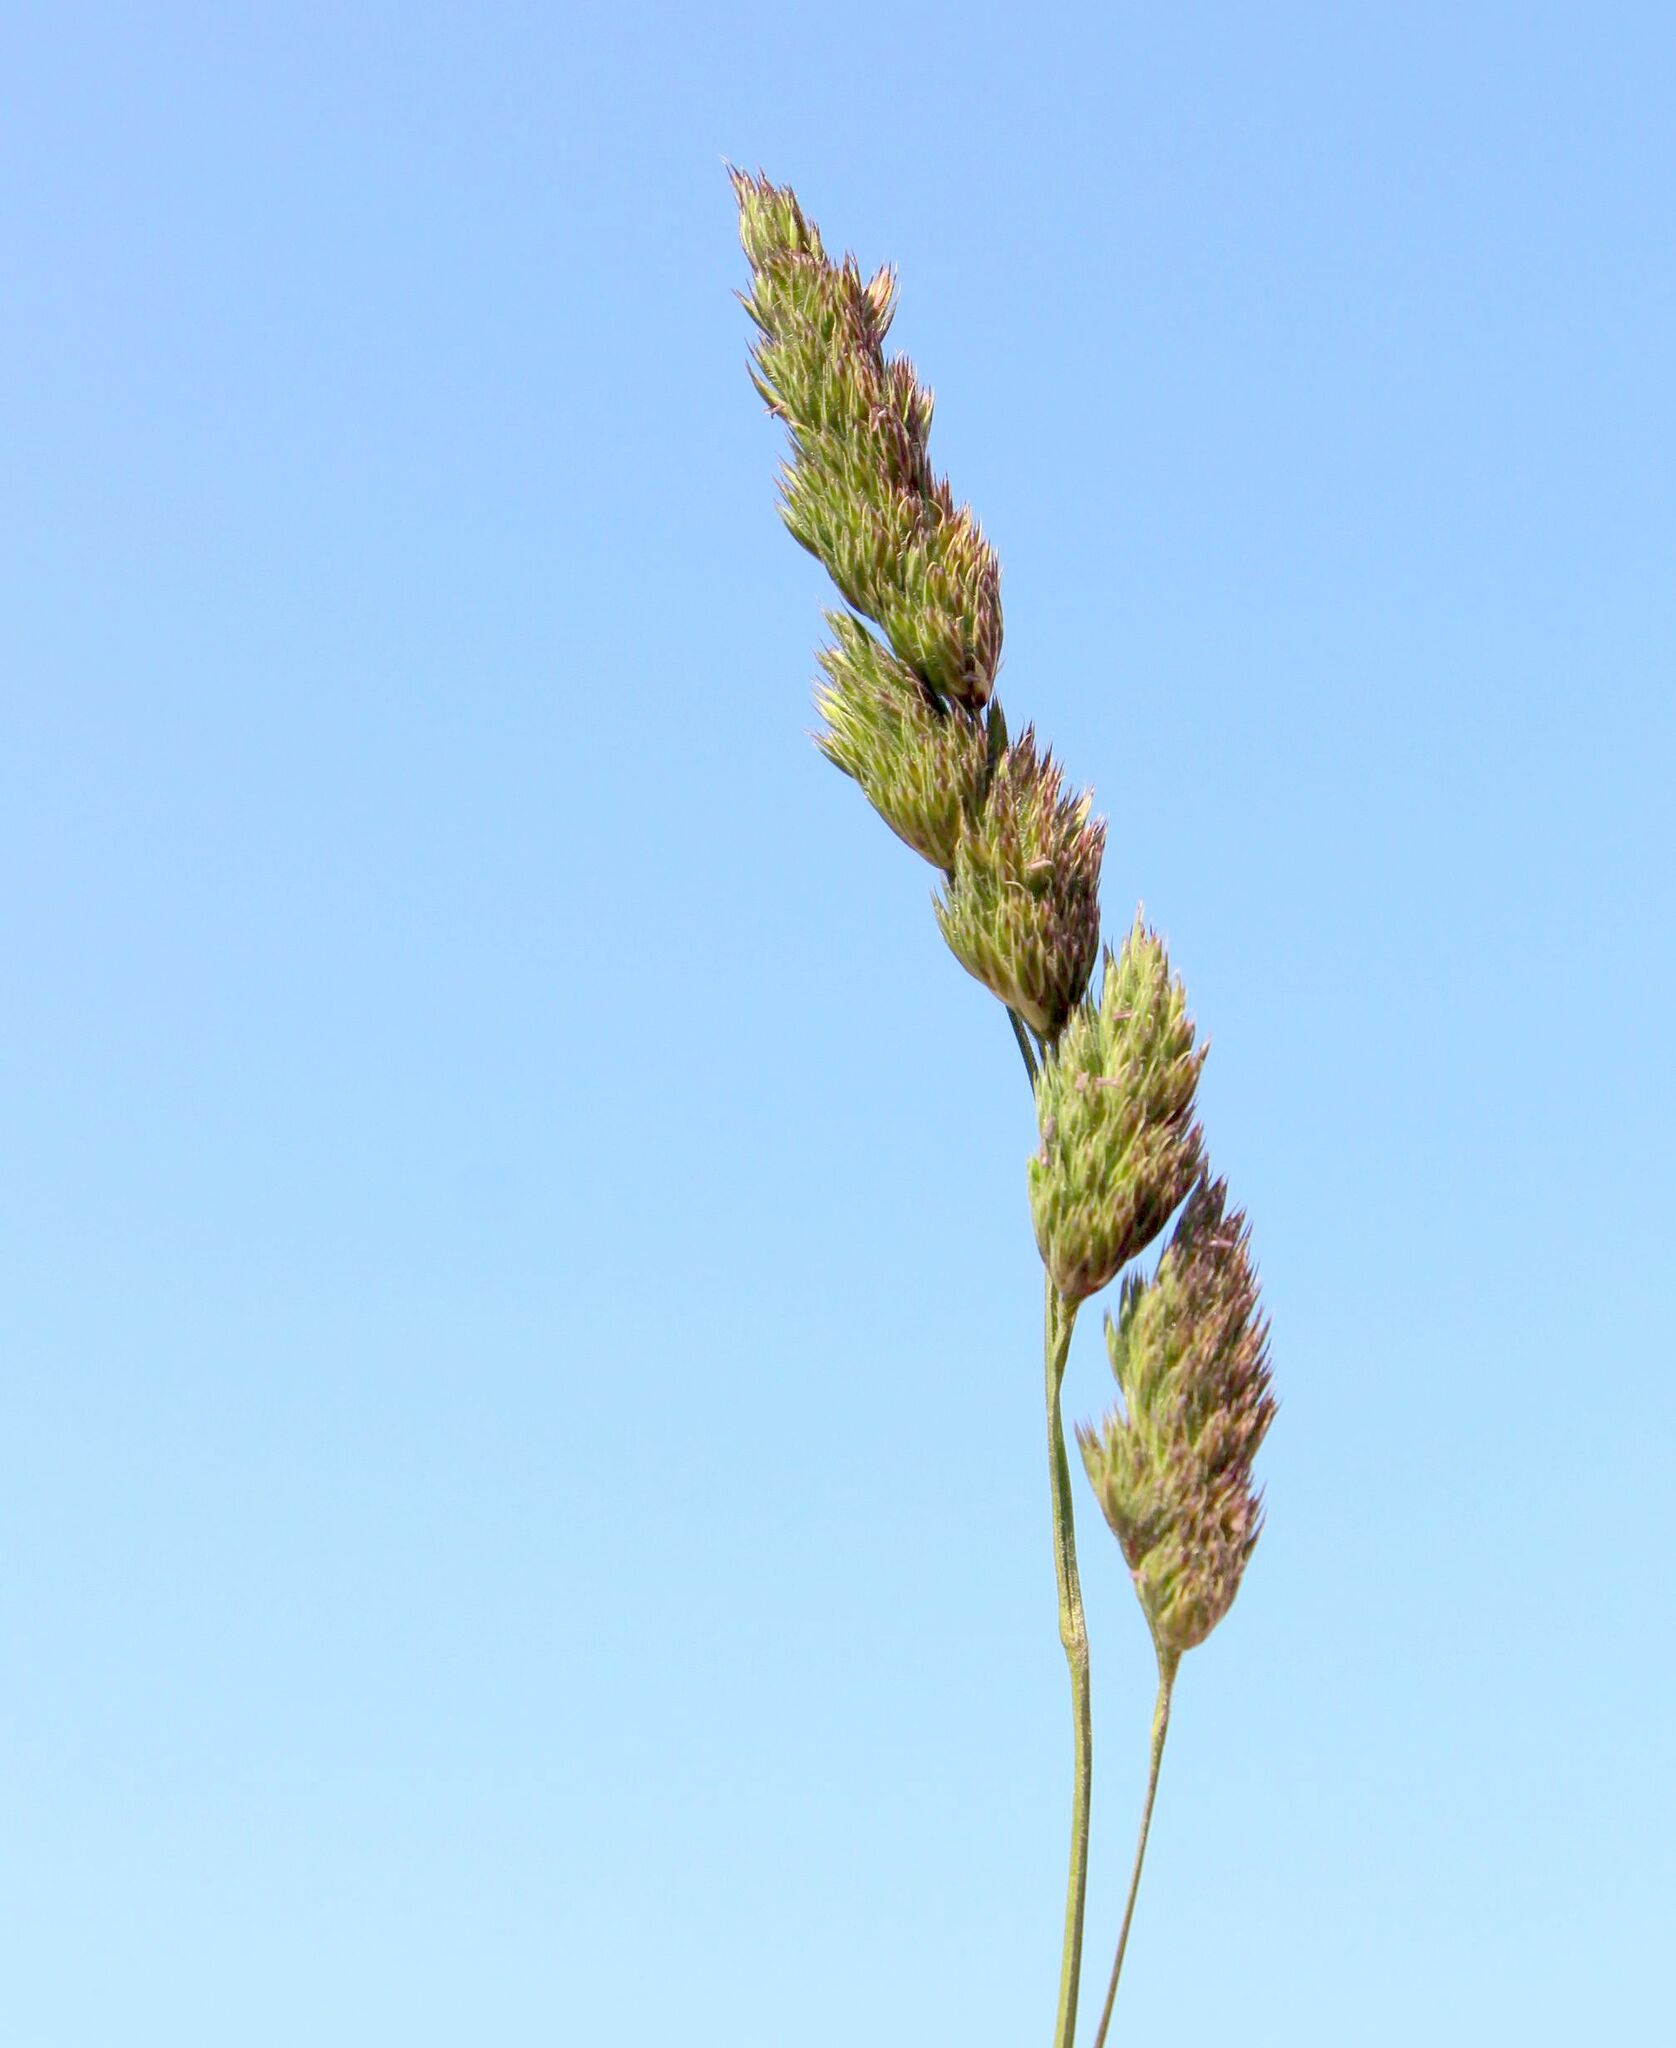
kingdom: Plantae
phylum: Tracheophyta
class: Liliopsida
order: Poales
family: Poaceae
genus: Dactylis
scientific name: Dactylis glomerata
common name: Orchardgrass
